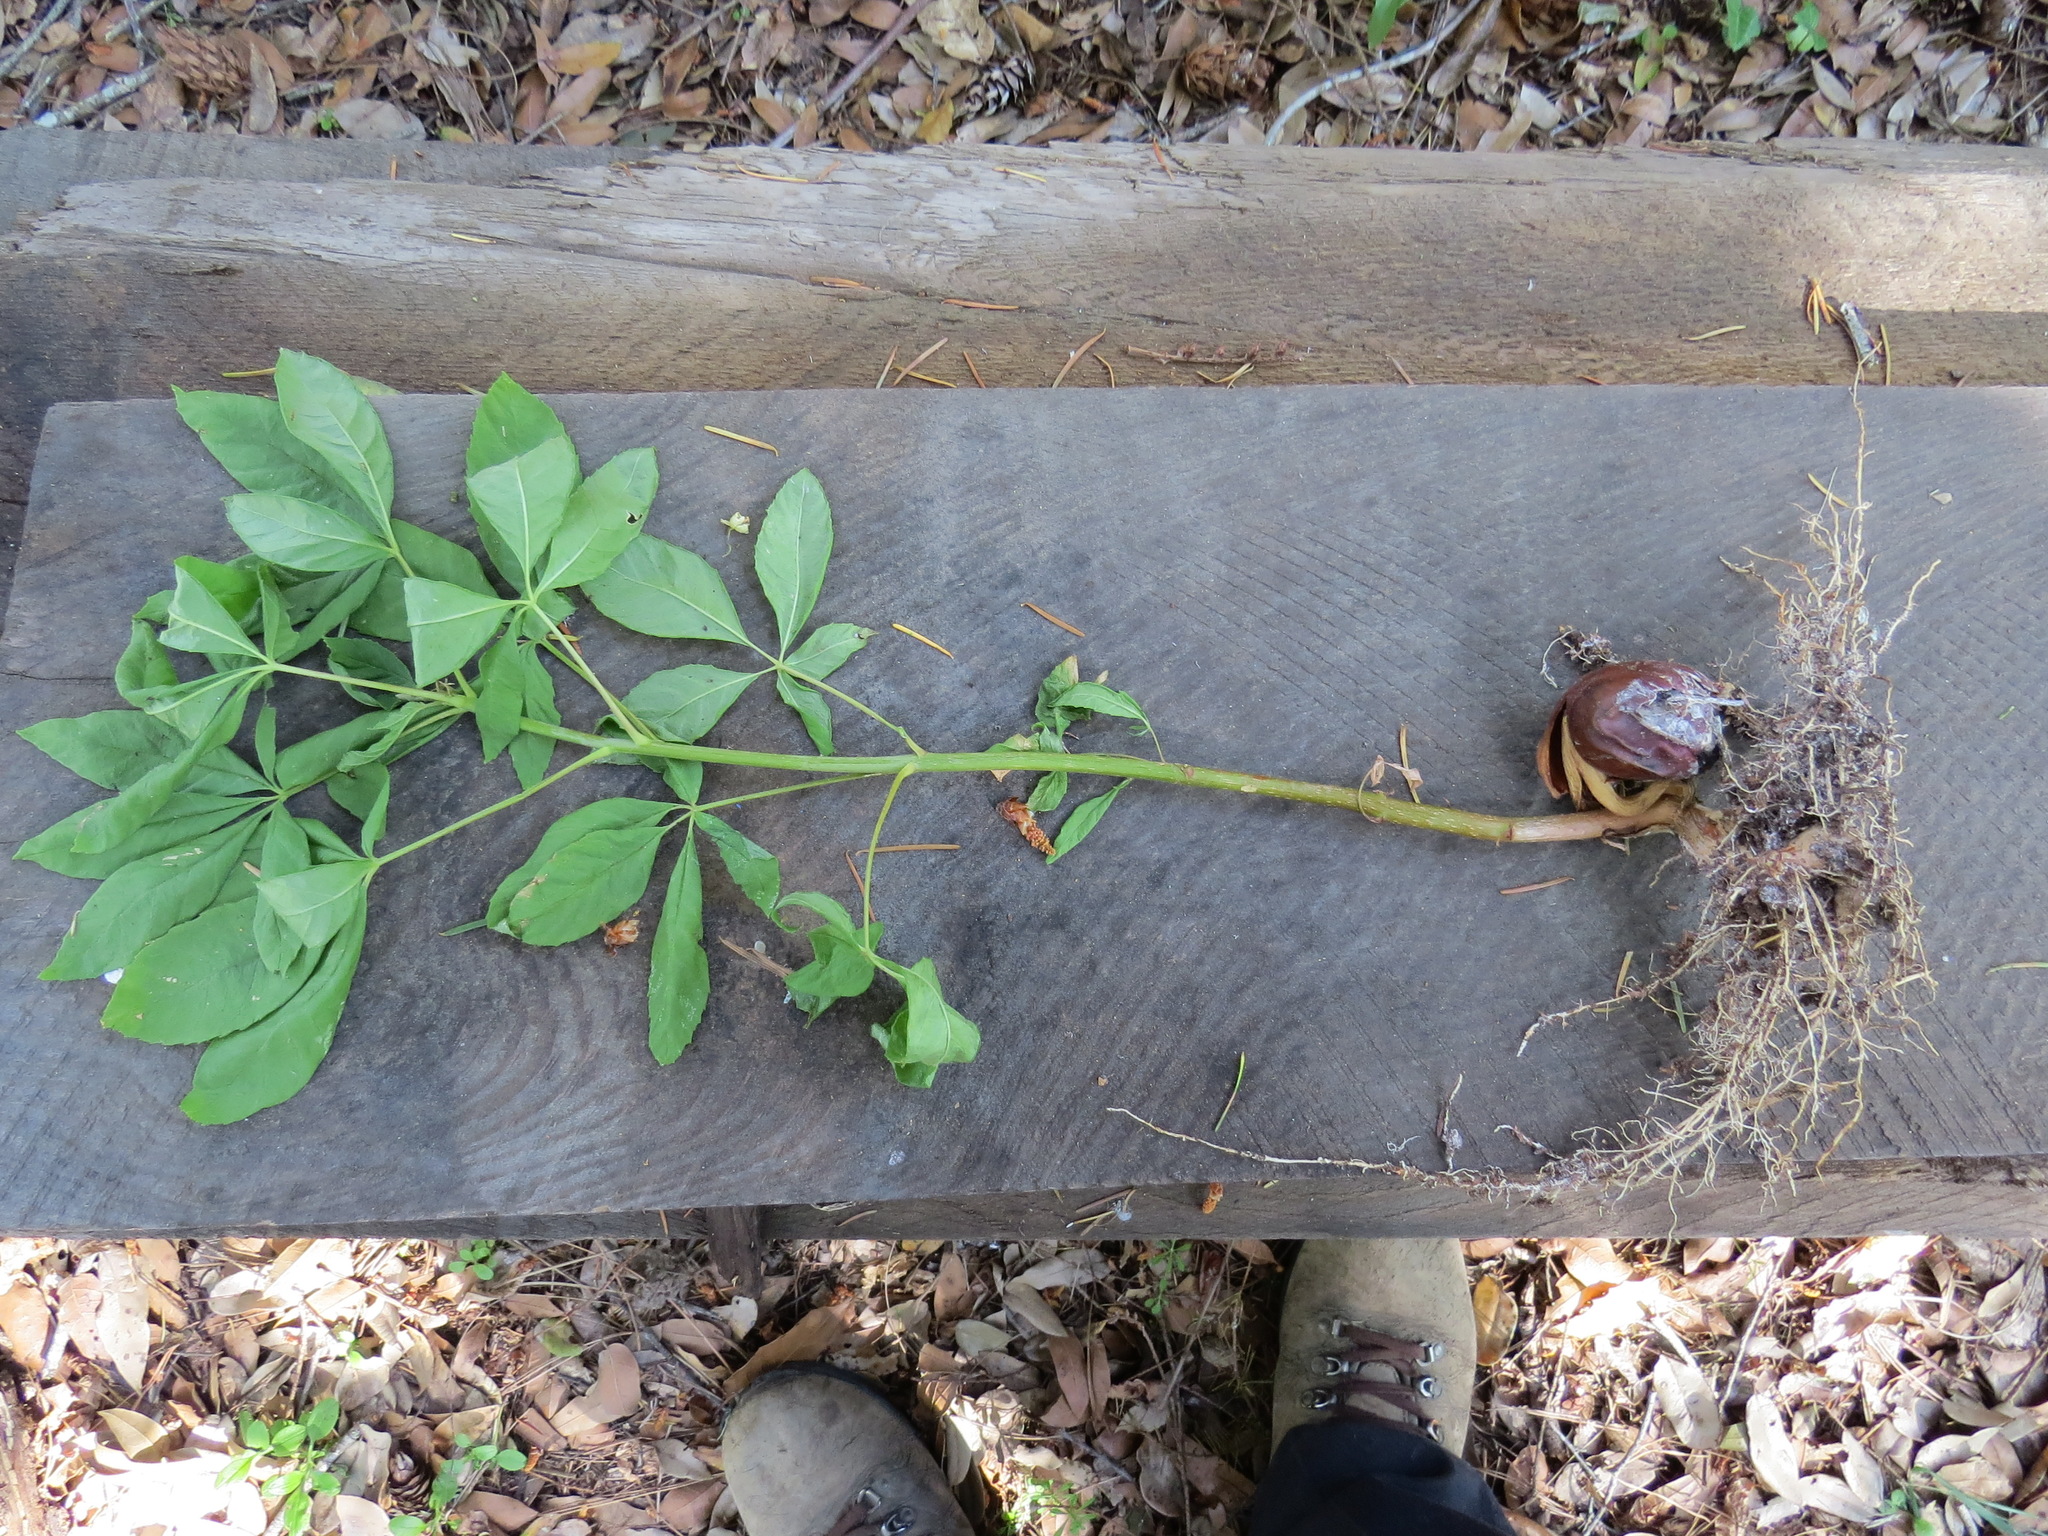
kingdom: Plantae
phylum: Tracheophyta
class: Magnoliopsida
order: Sapindales
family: Sapindaceae
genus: Aesculus
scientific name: Aesculus californica
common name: California buckeye
